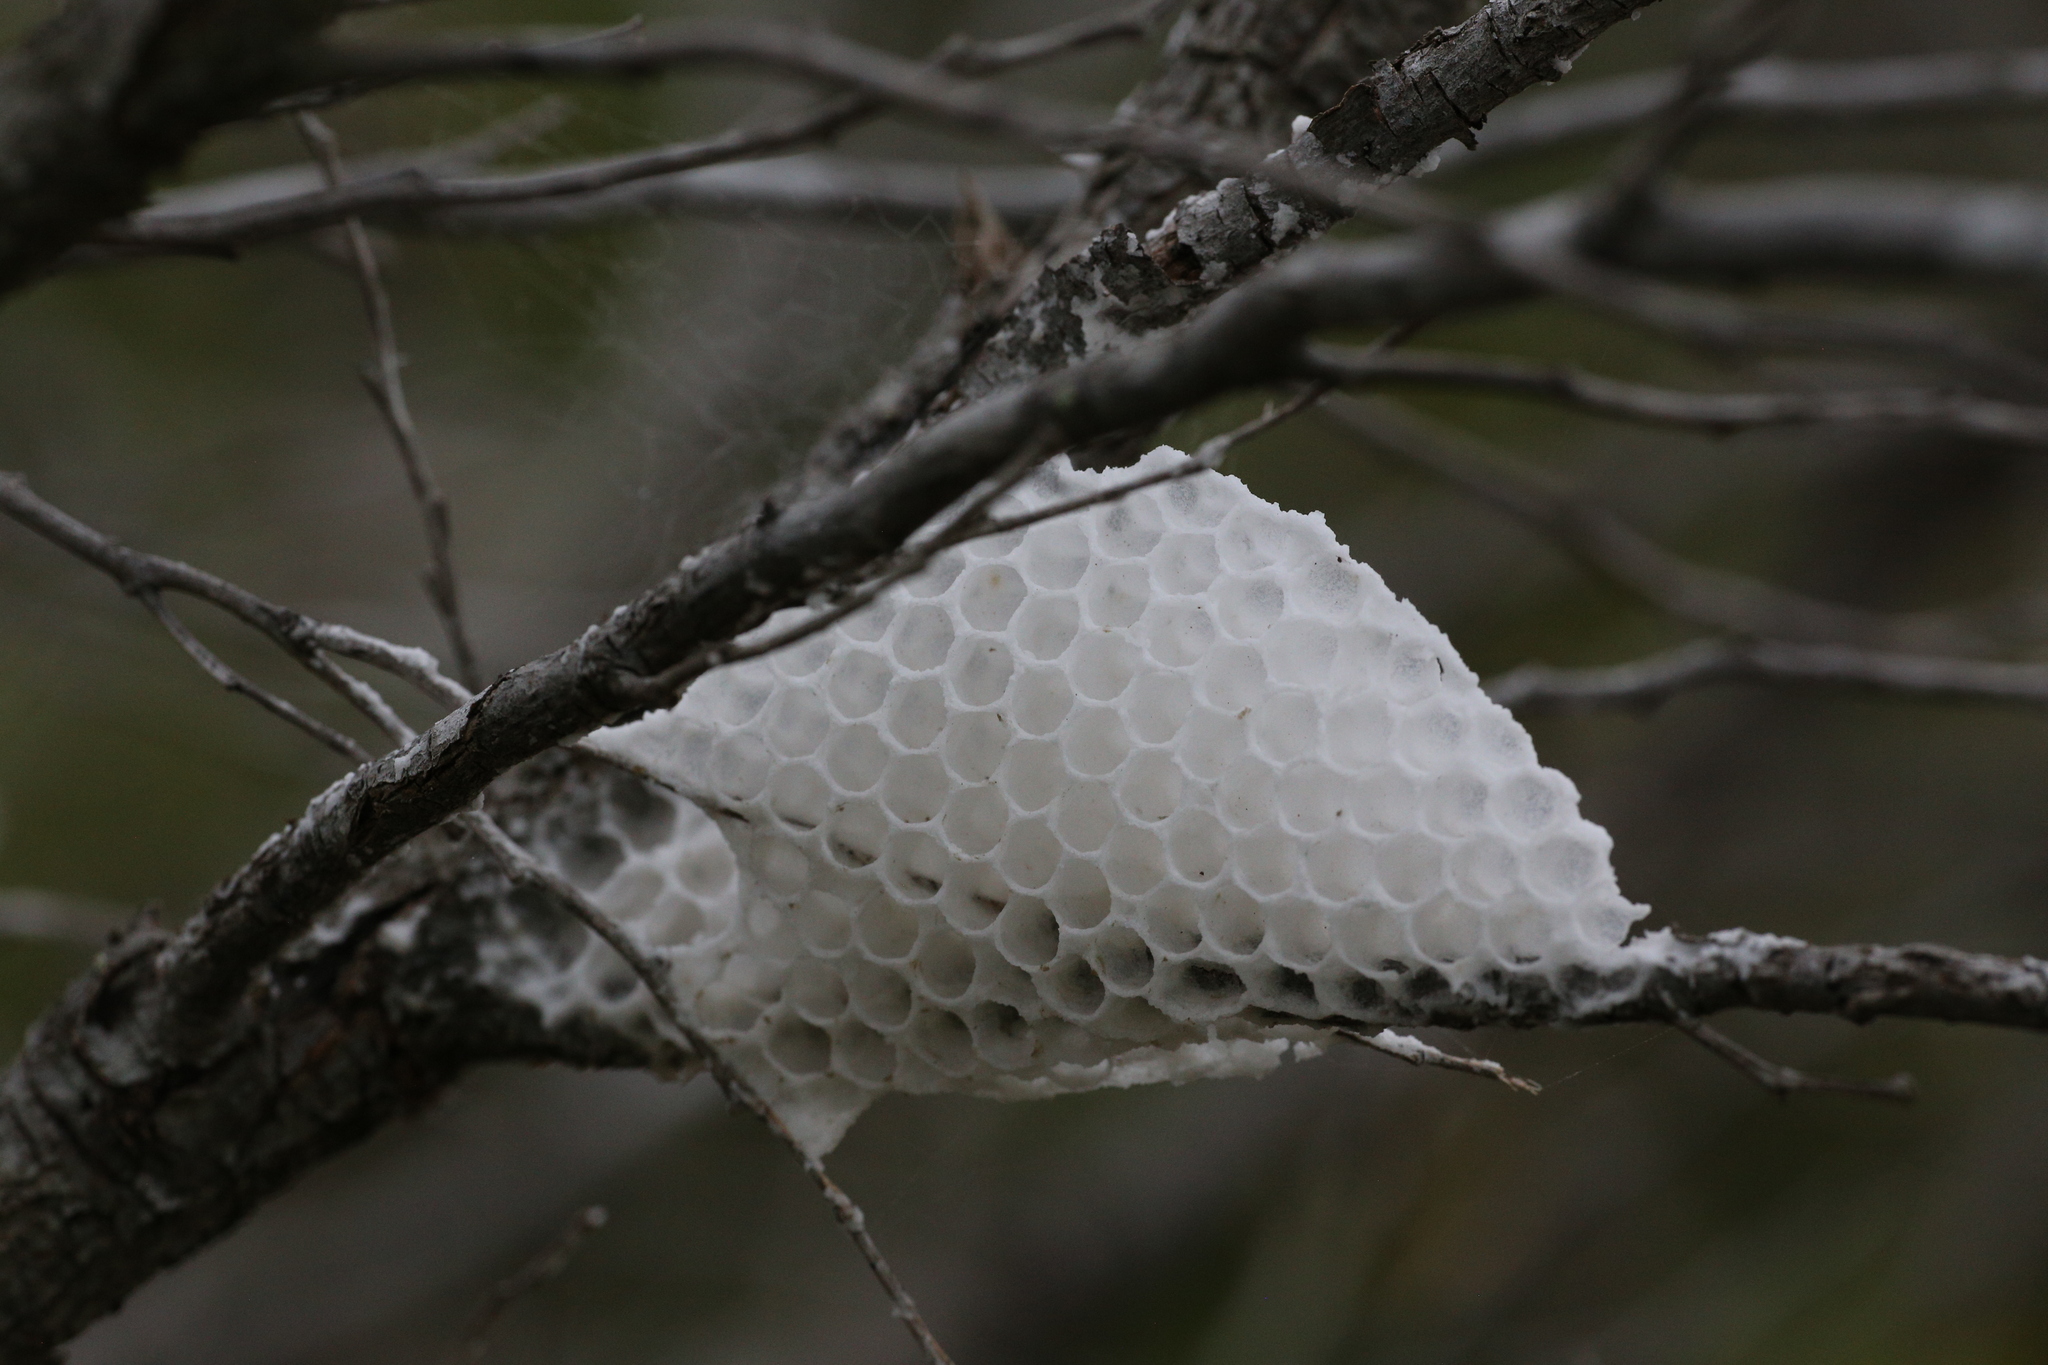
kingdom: Animalia
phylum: Arthropoda
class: Insecta
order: Hymenoptera
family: Apidae
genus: Apis
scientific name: Apis mellifera
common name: Honey bee
